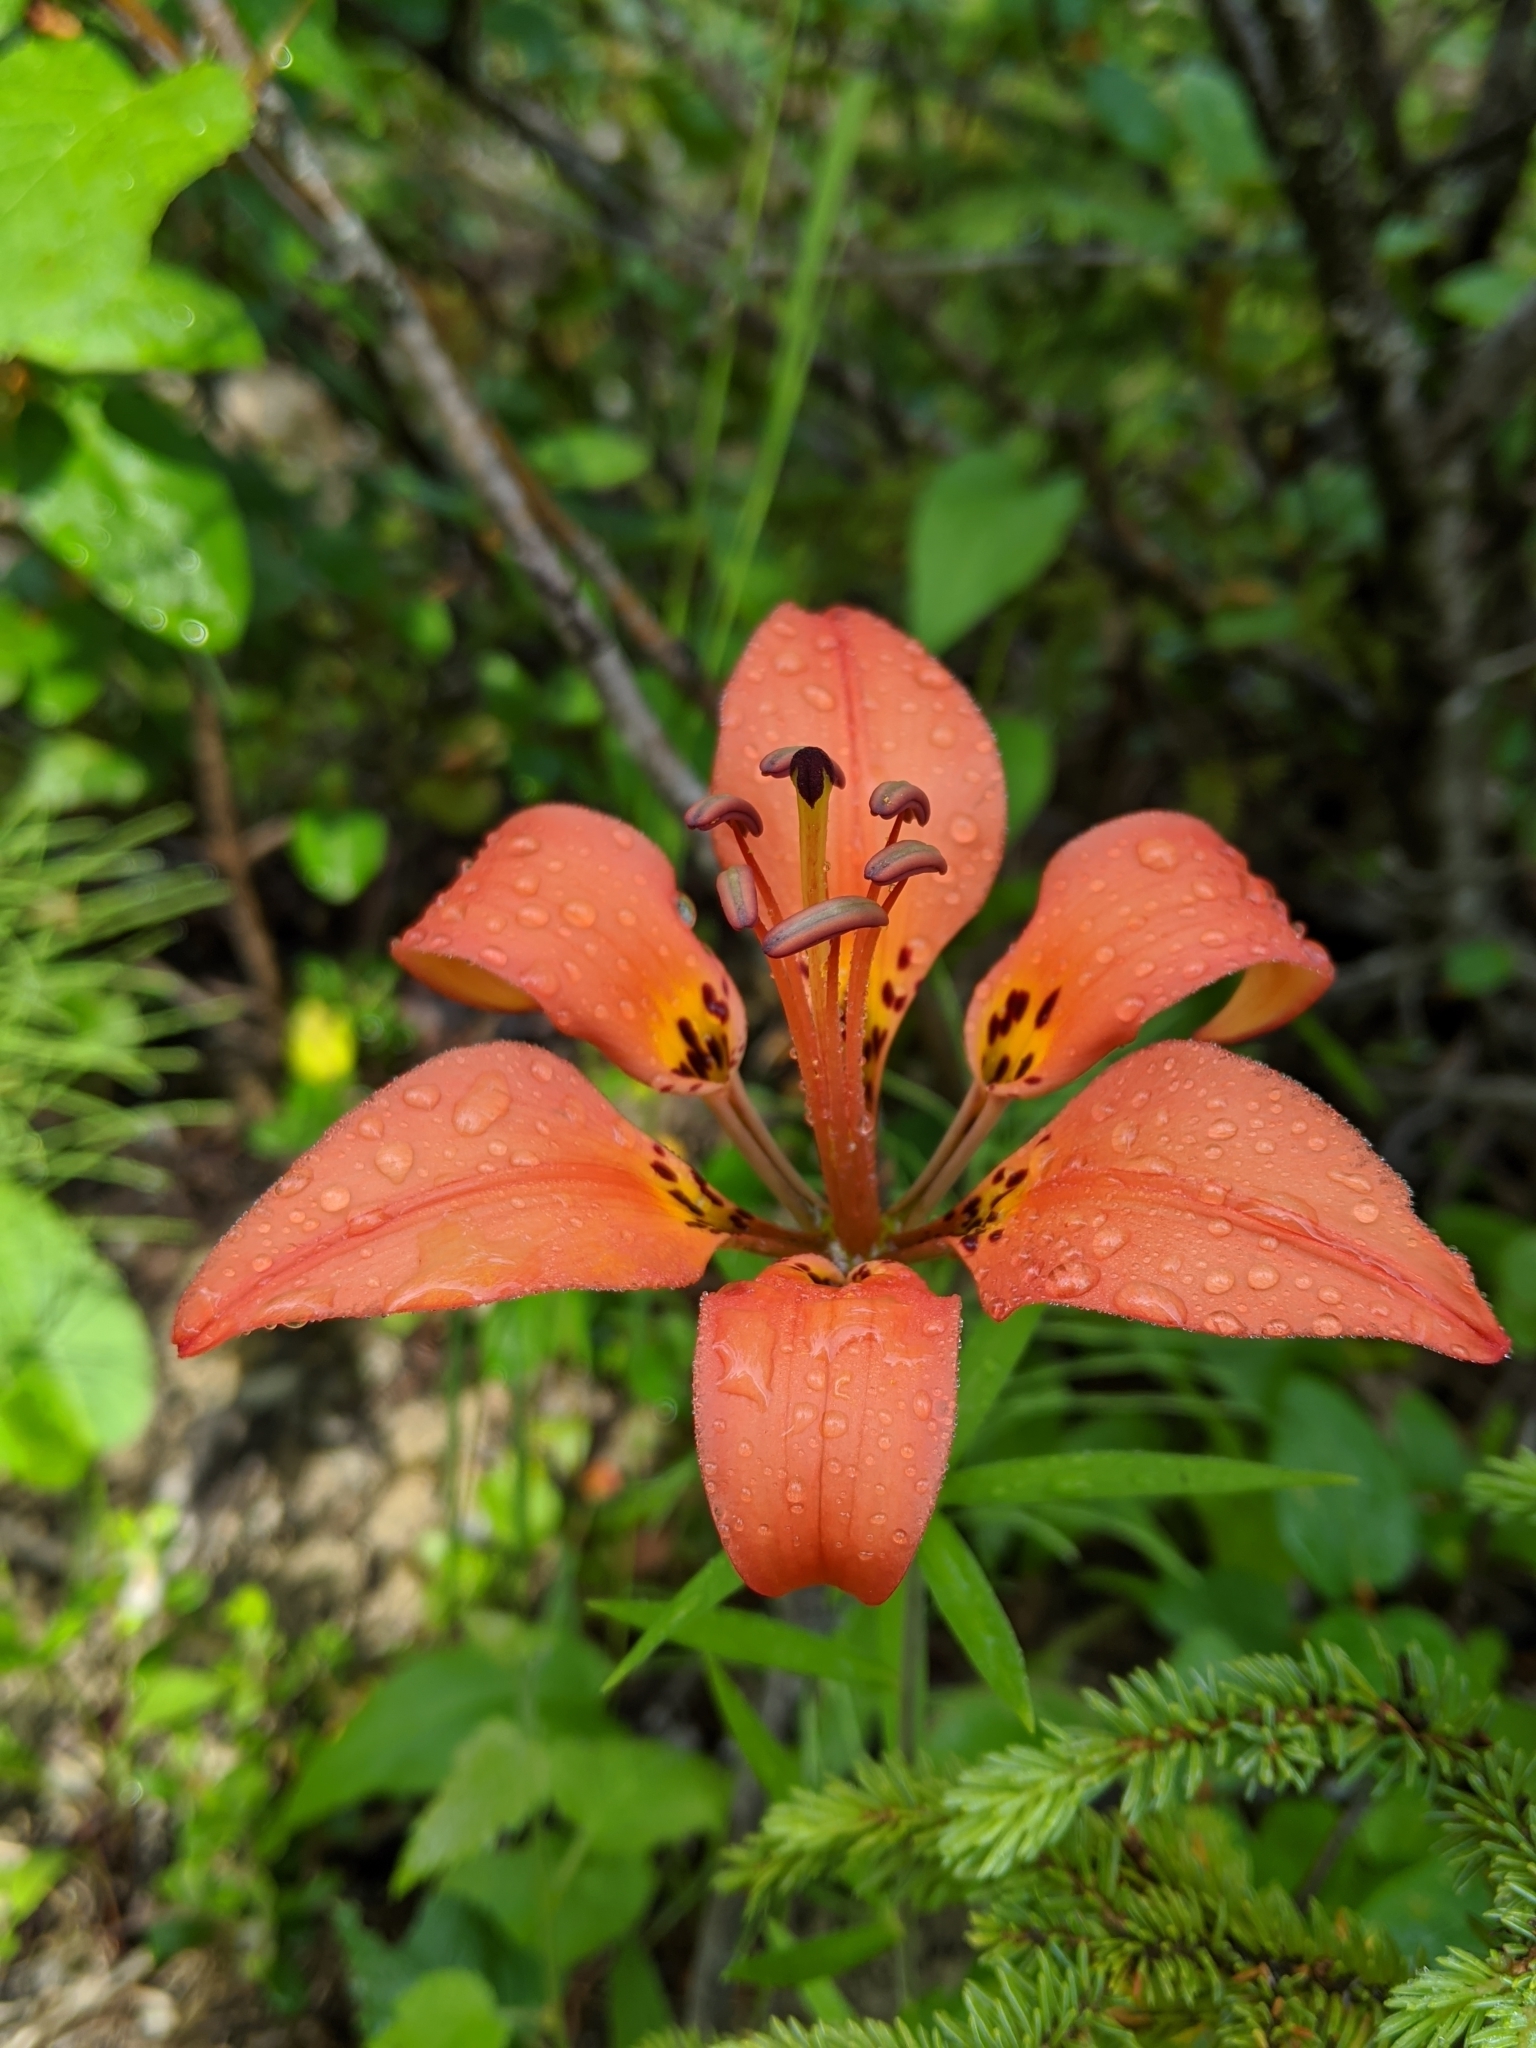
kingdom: Plantae
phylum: Tracheophyta
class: Liliopsida
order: Liliales
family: Liliaceae
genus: Lilium
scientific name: Lilium philadelphicum
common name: Red lily
